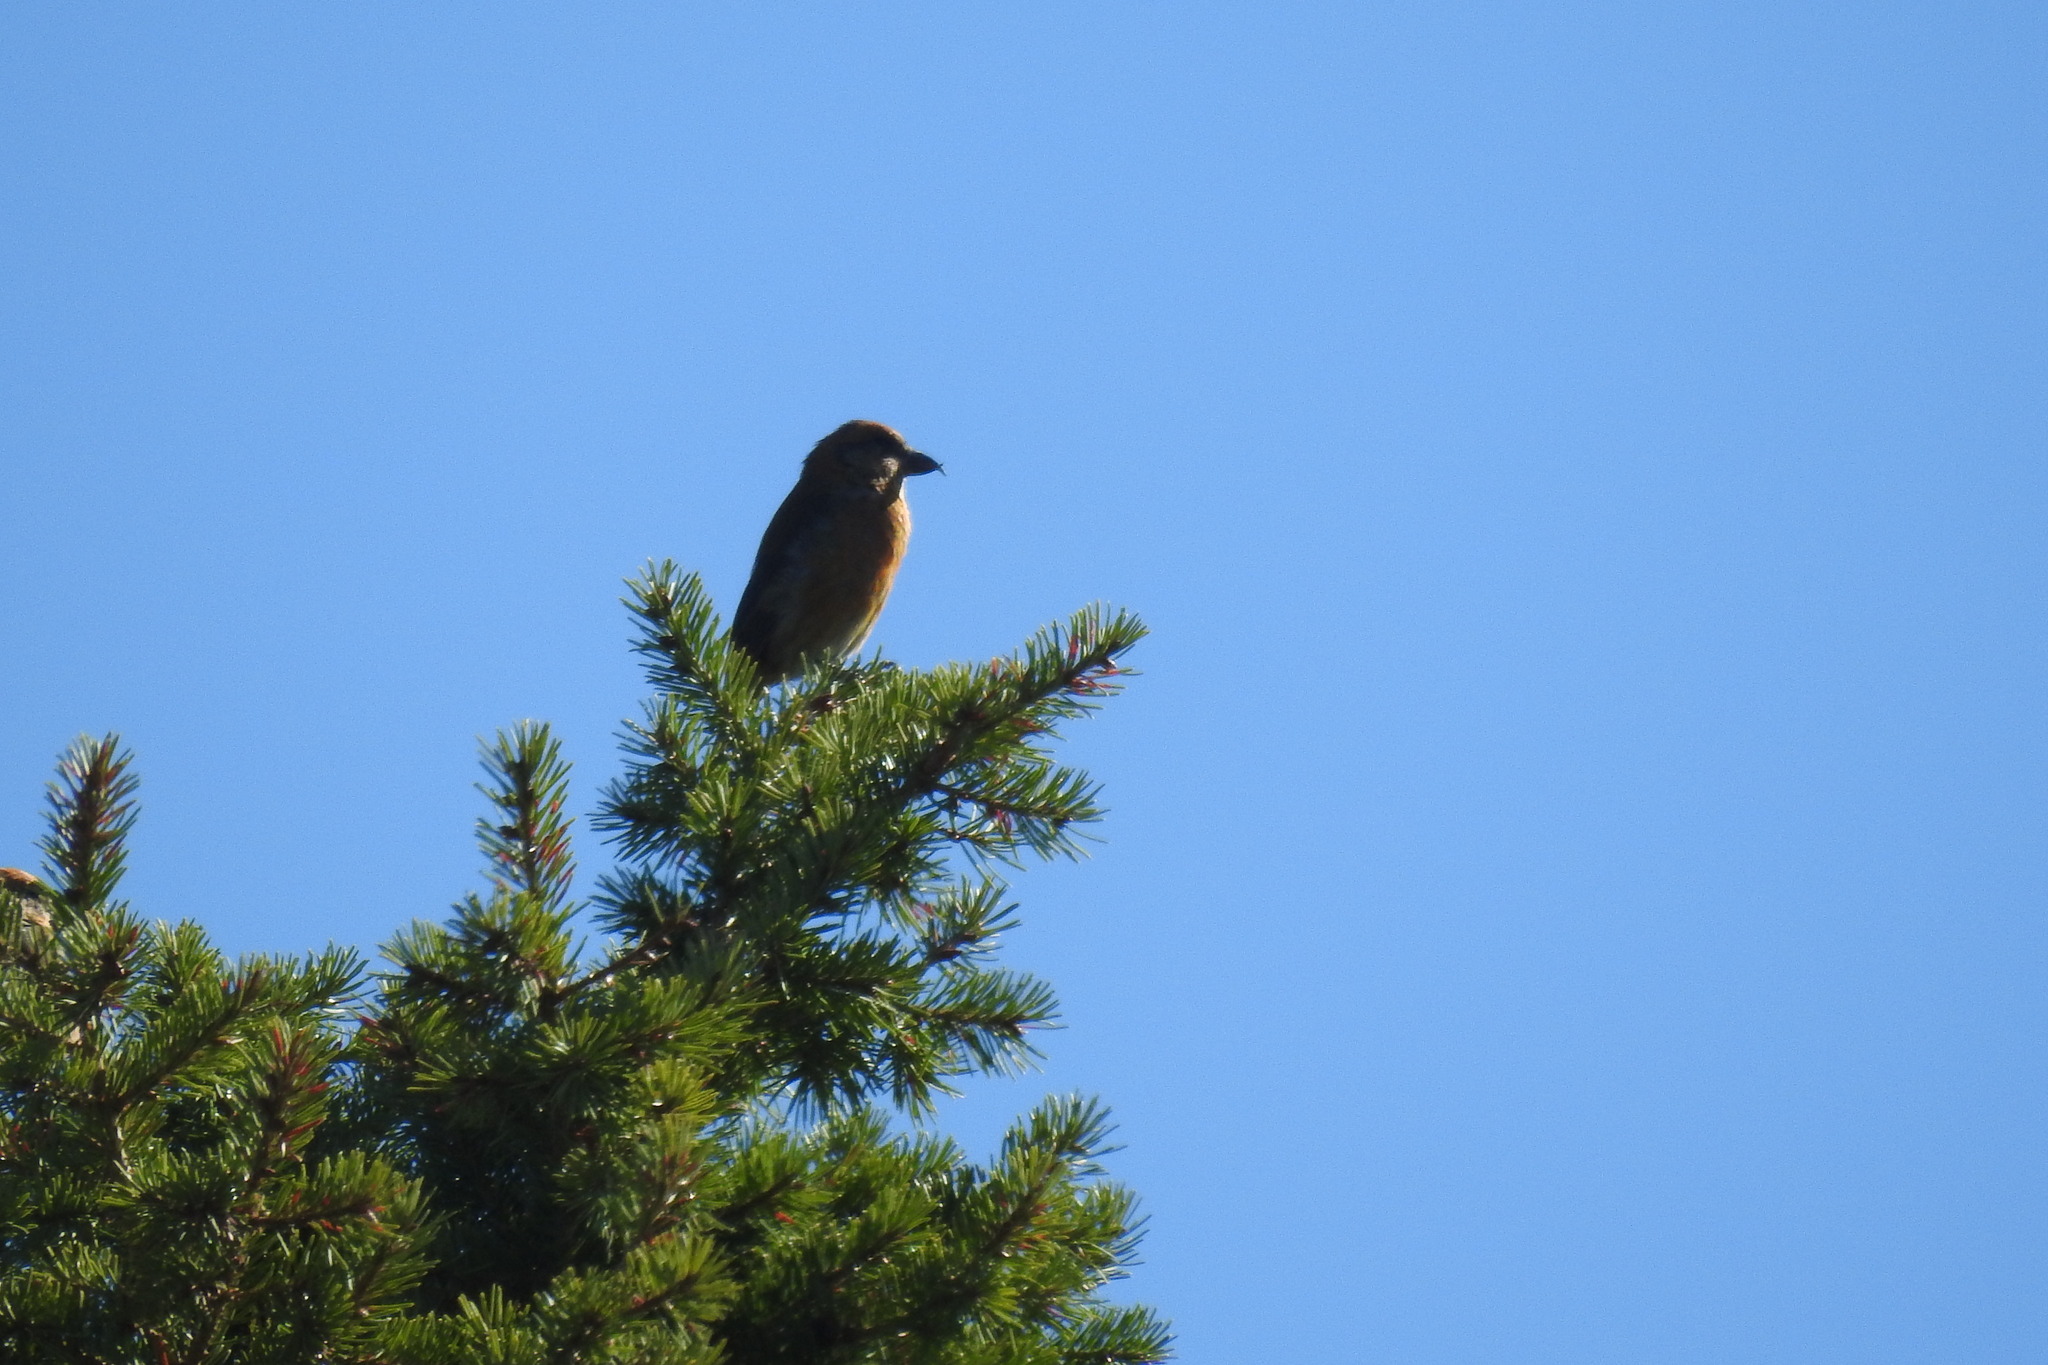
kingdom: Animalia
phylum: Chordata
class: Aves
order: Passeriformes
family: Fringillidae
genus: Loxia
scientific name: Loxia curvirostra
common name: Red crossbill
